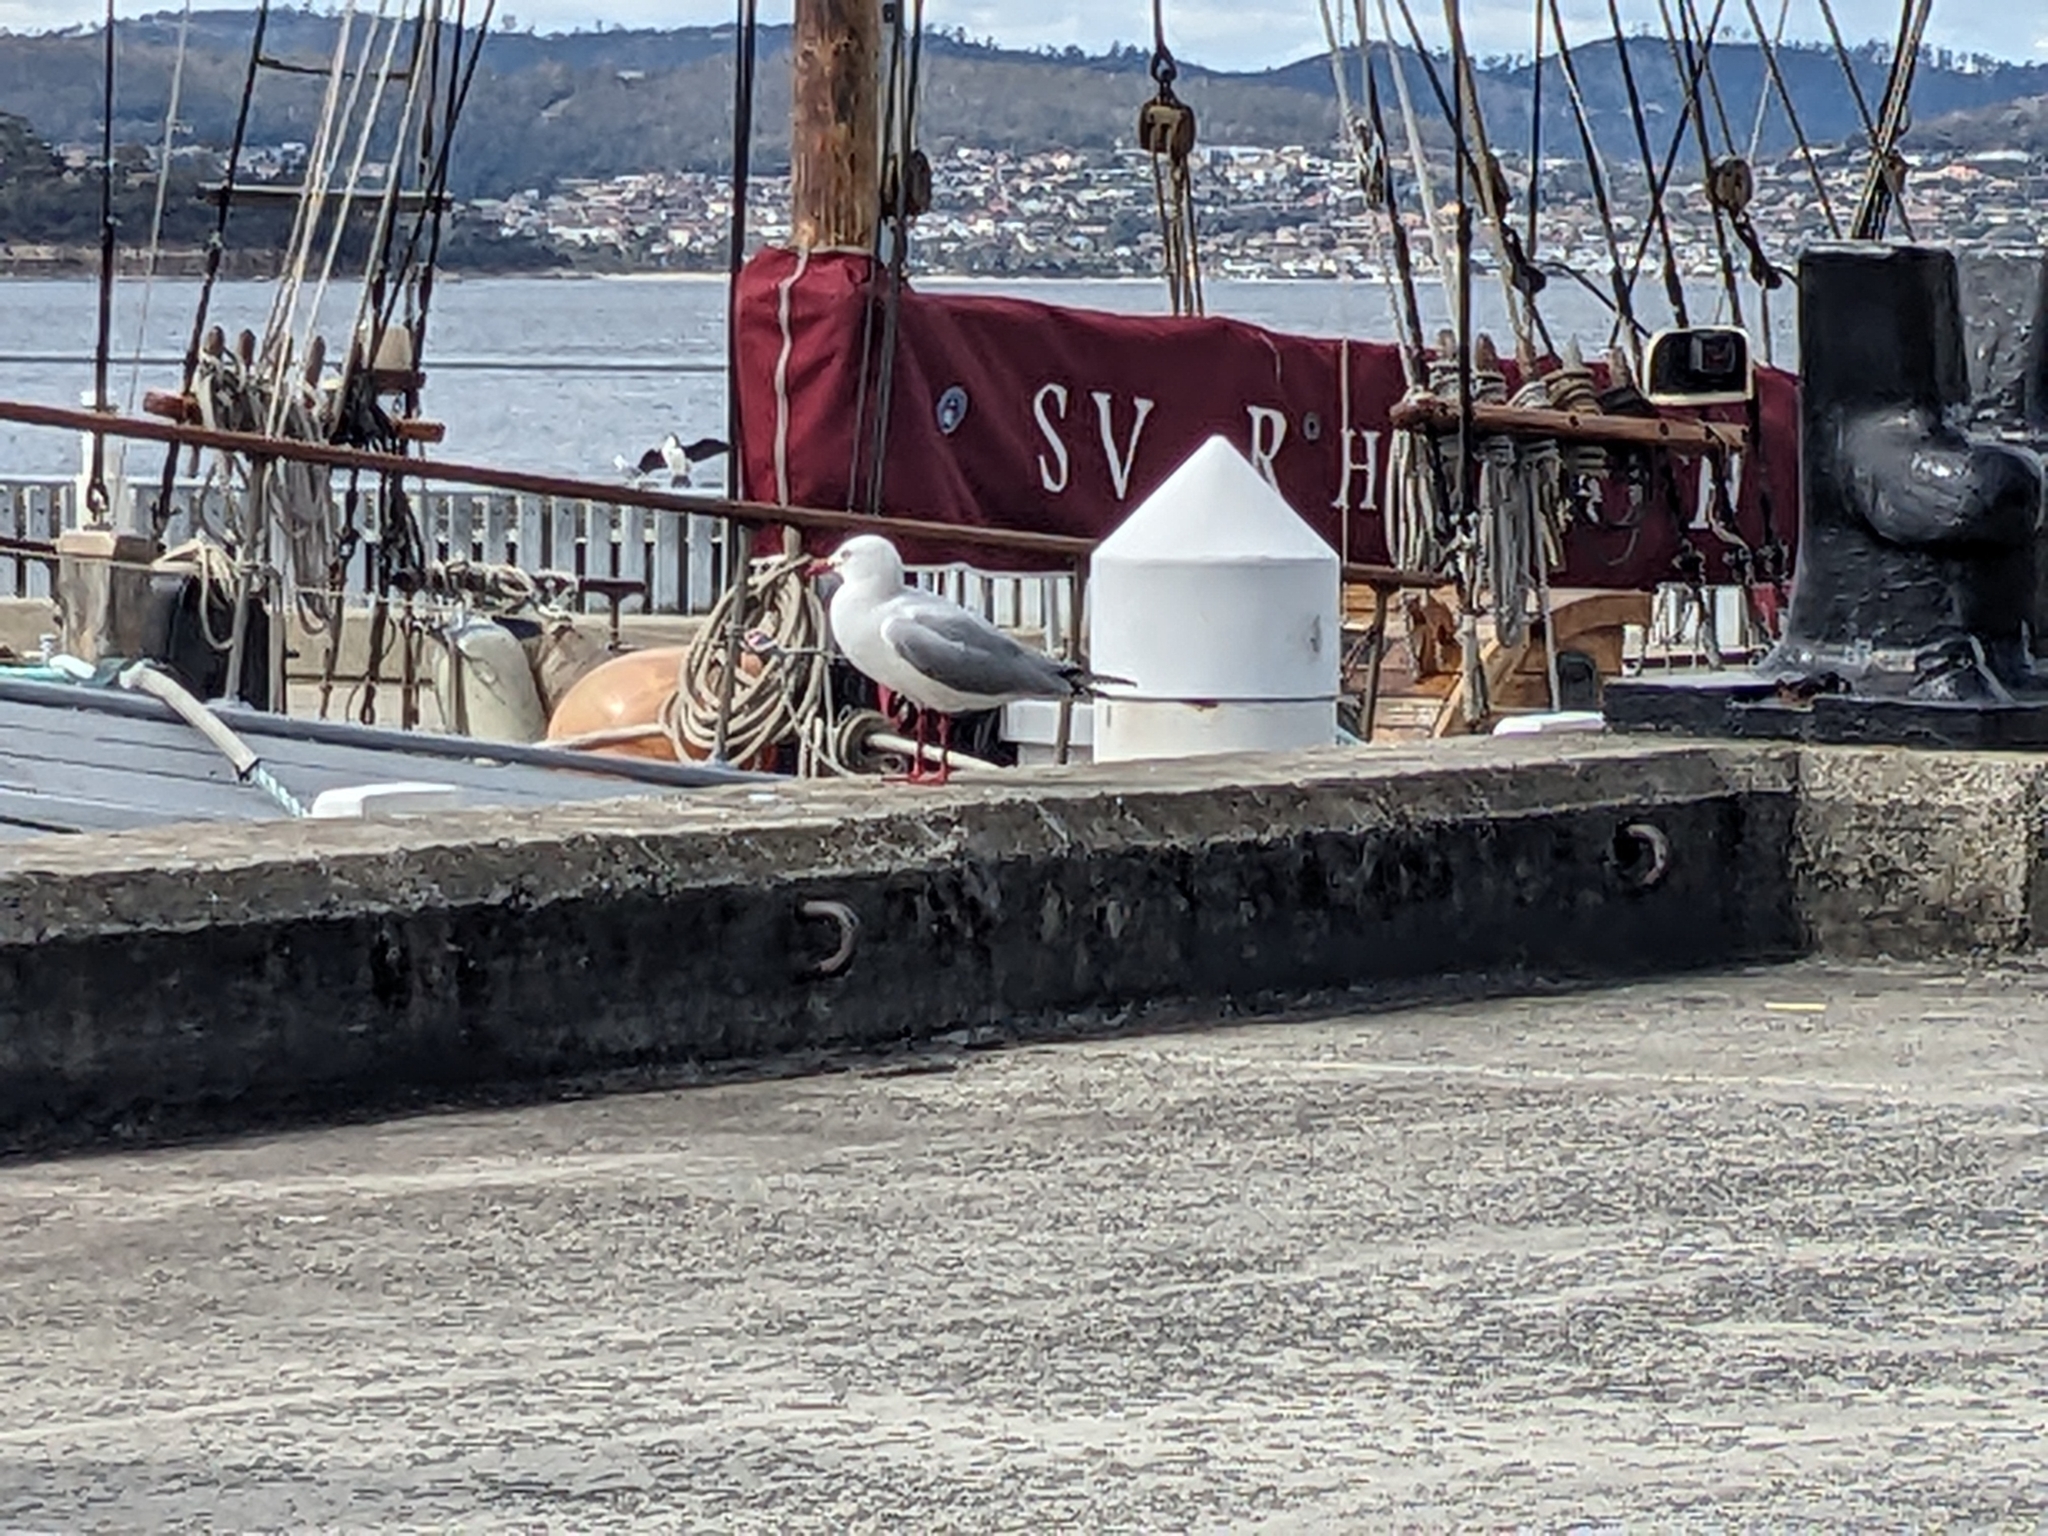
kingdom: Animalia
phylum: Chordata
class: Aves
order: Charadriiformes
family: Laridae
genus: Chroicocephalus
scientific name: Chroicocephalus novaehollandiae
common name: Silver gull
